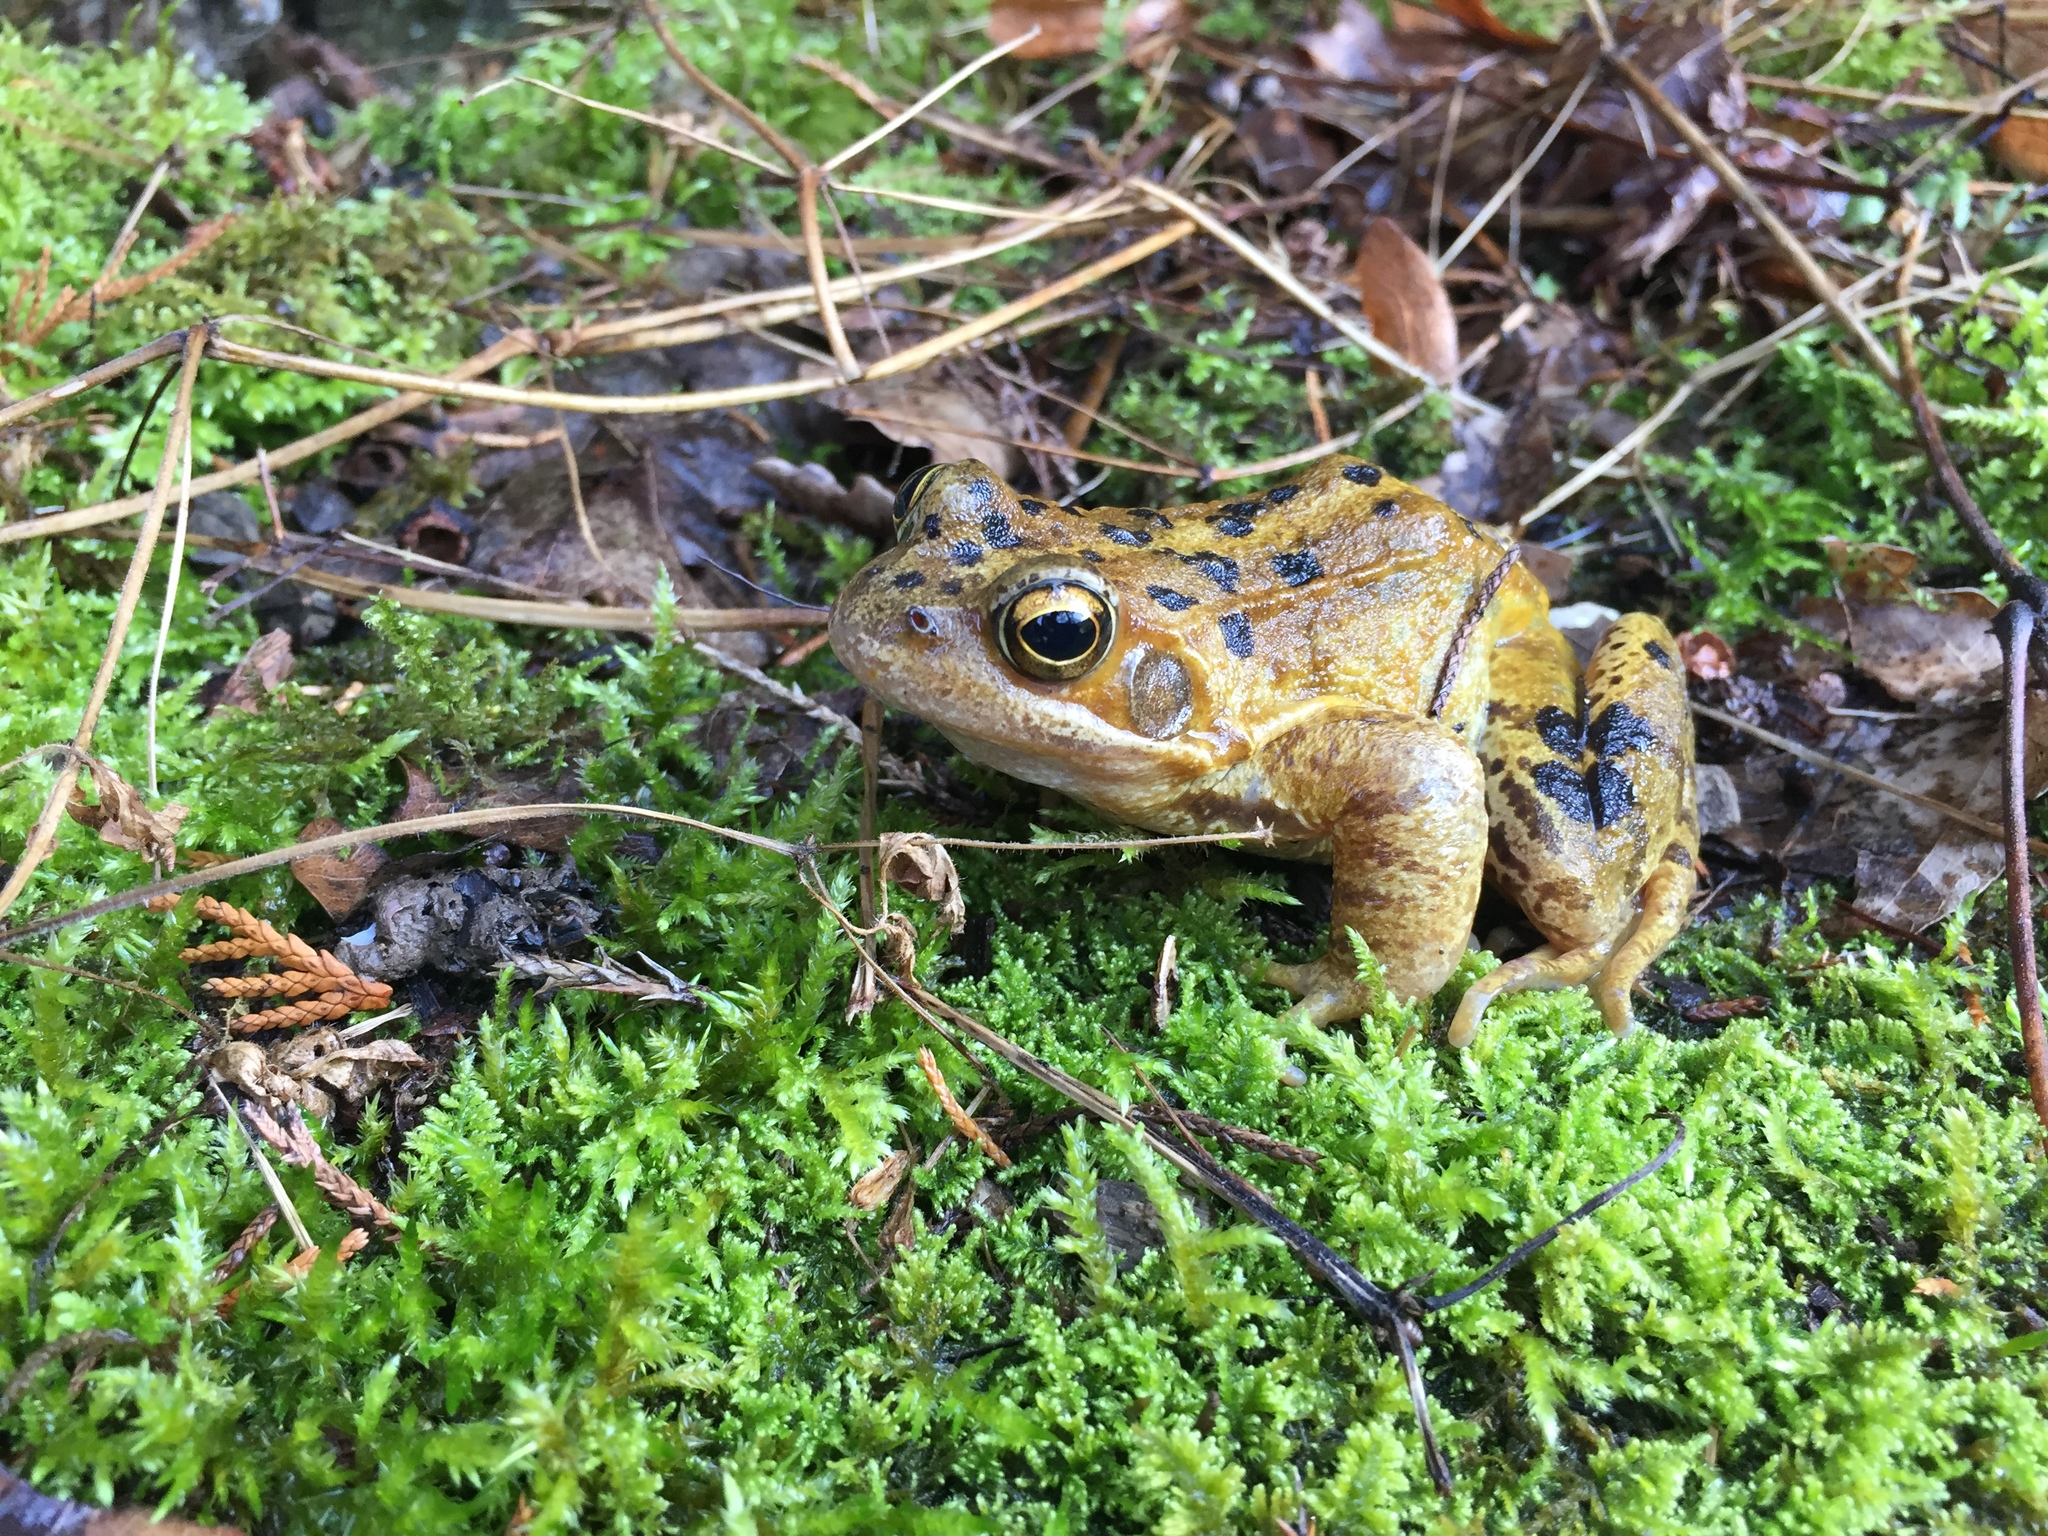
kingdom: Animalia
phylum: Chordata
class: Amphibia
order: Anura
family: Ranidae
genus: Rana
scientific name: Rana temporaria
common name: Common frog
